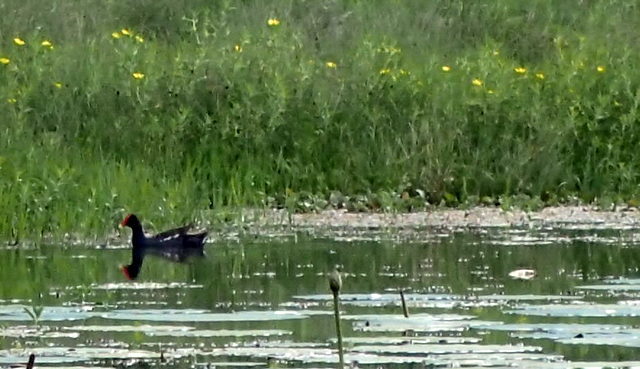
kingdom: Animalia
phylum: Chordata
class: Aves
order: Gruiformes
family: Rallidae
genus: Gallinula
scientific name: Gallinula chloropus
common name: Common moorhen
